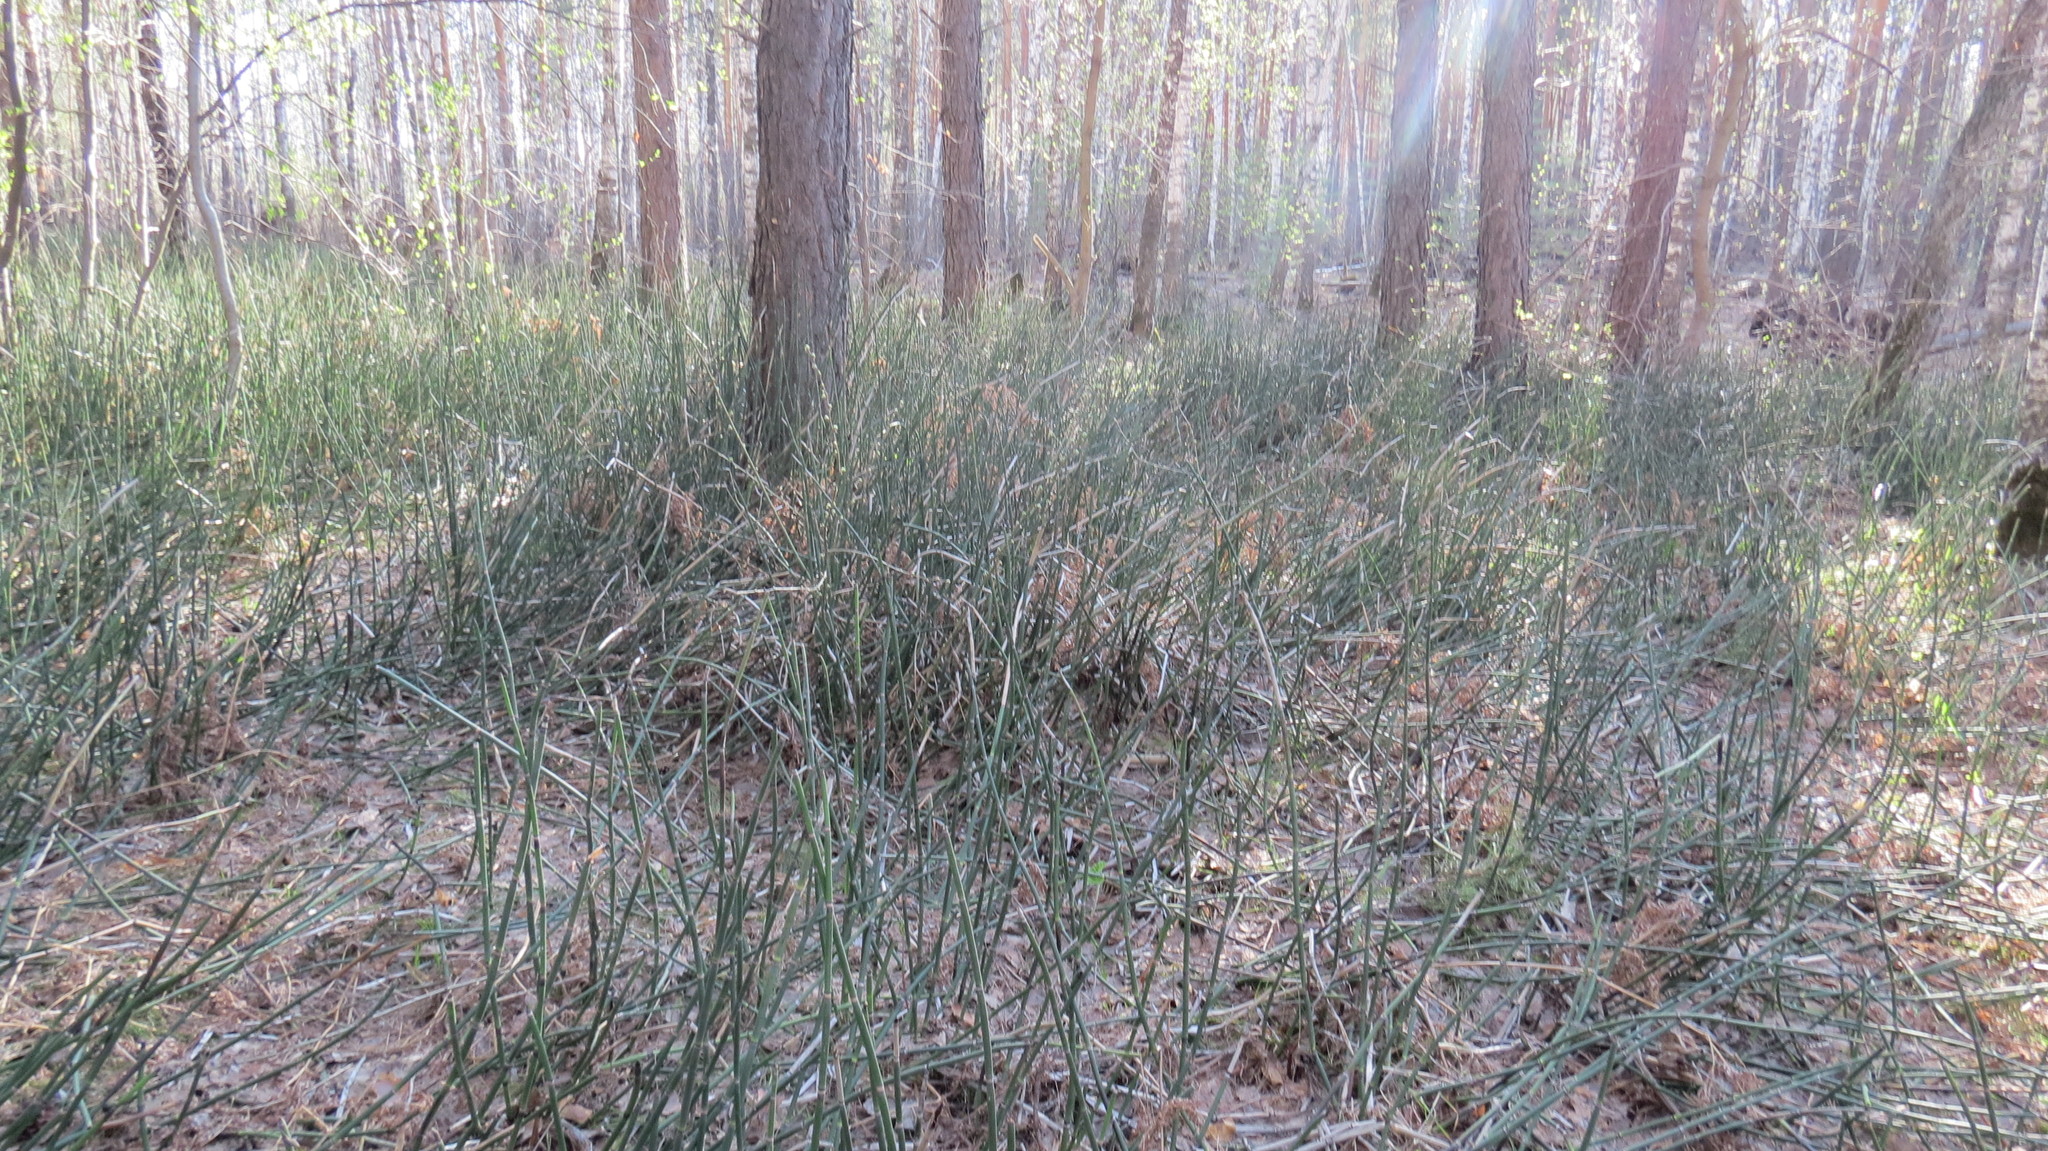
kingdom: Plantae
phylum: Tracheophyta
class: Polypodiopsida
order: Equisetales
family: Equisetaceae
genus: Equisetum
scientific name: Equisetum hyemale
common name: Rough horsetail
